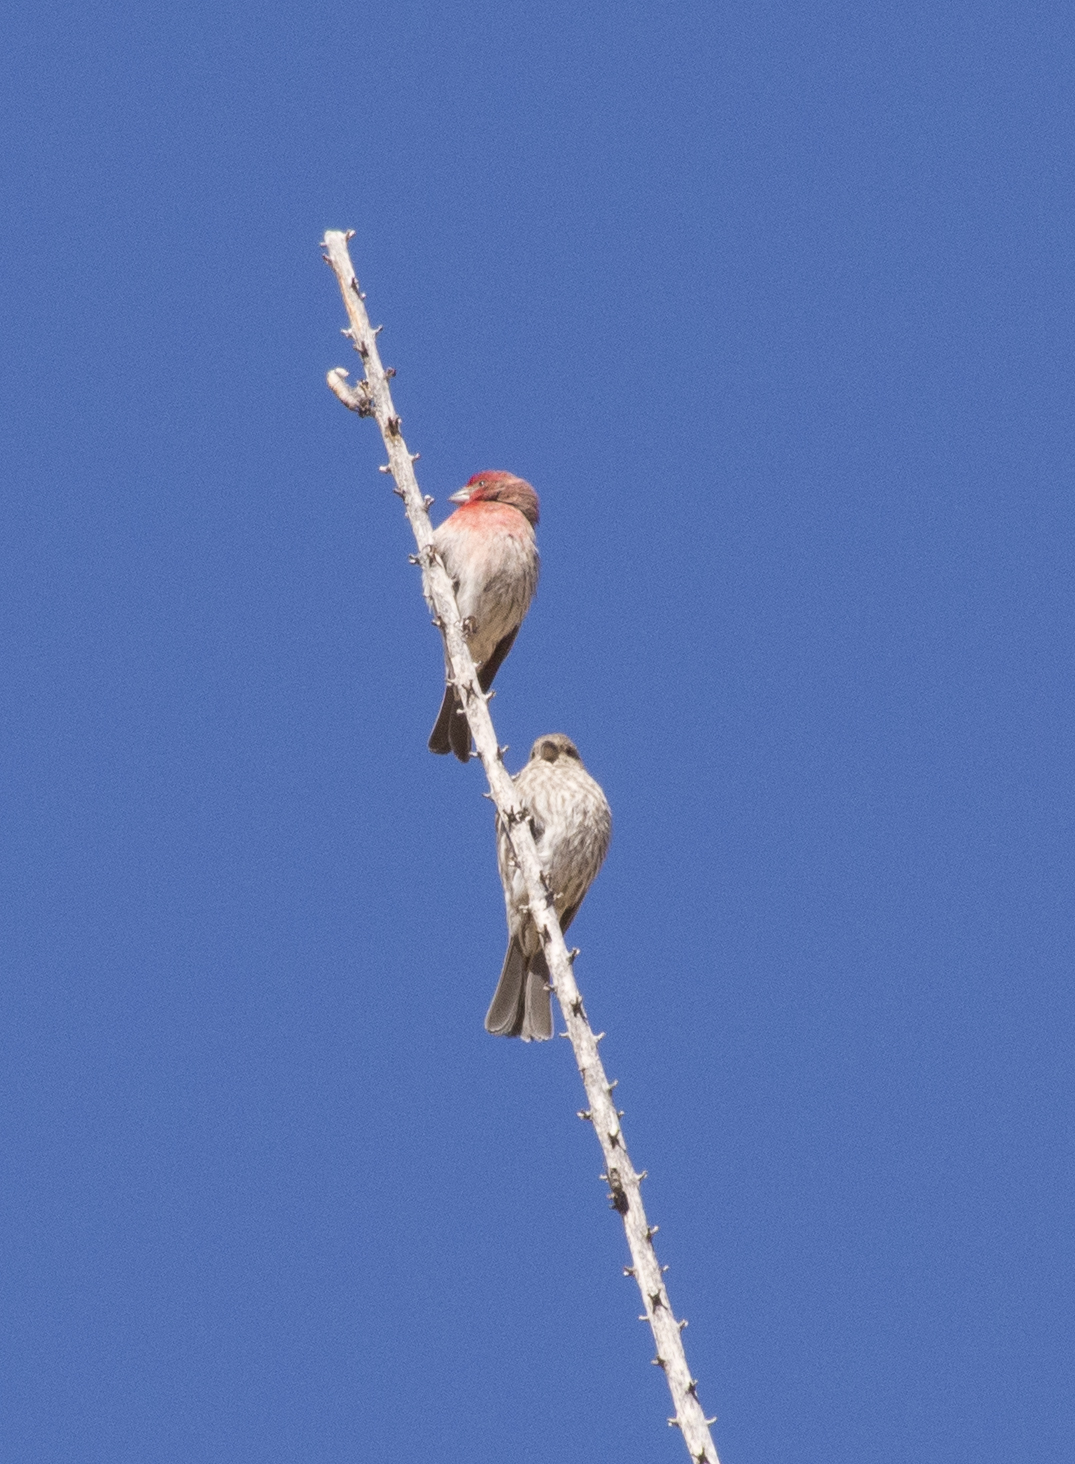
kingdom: Animalia
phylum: Chordata
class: Aves
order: Passeriformes
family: Fringillidae
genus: Haemorhous
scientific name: Haemorhous mexicanus
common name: House finch
